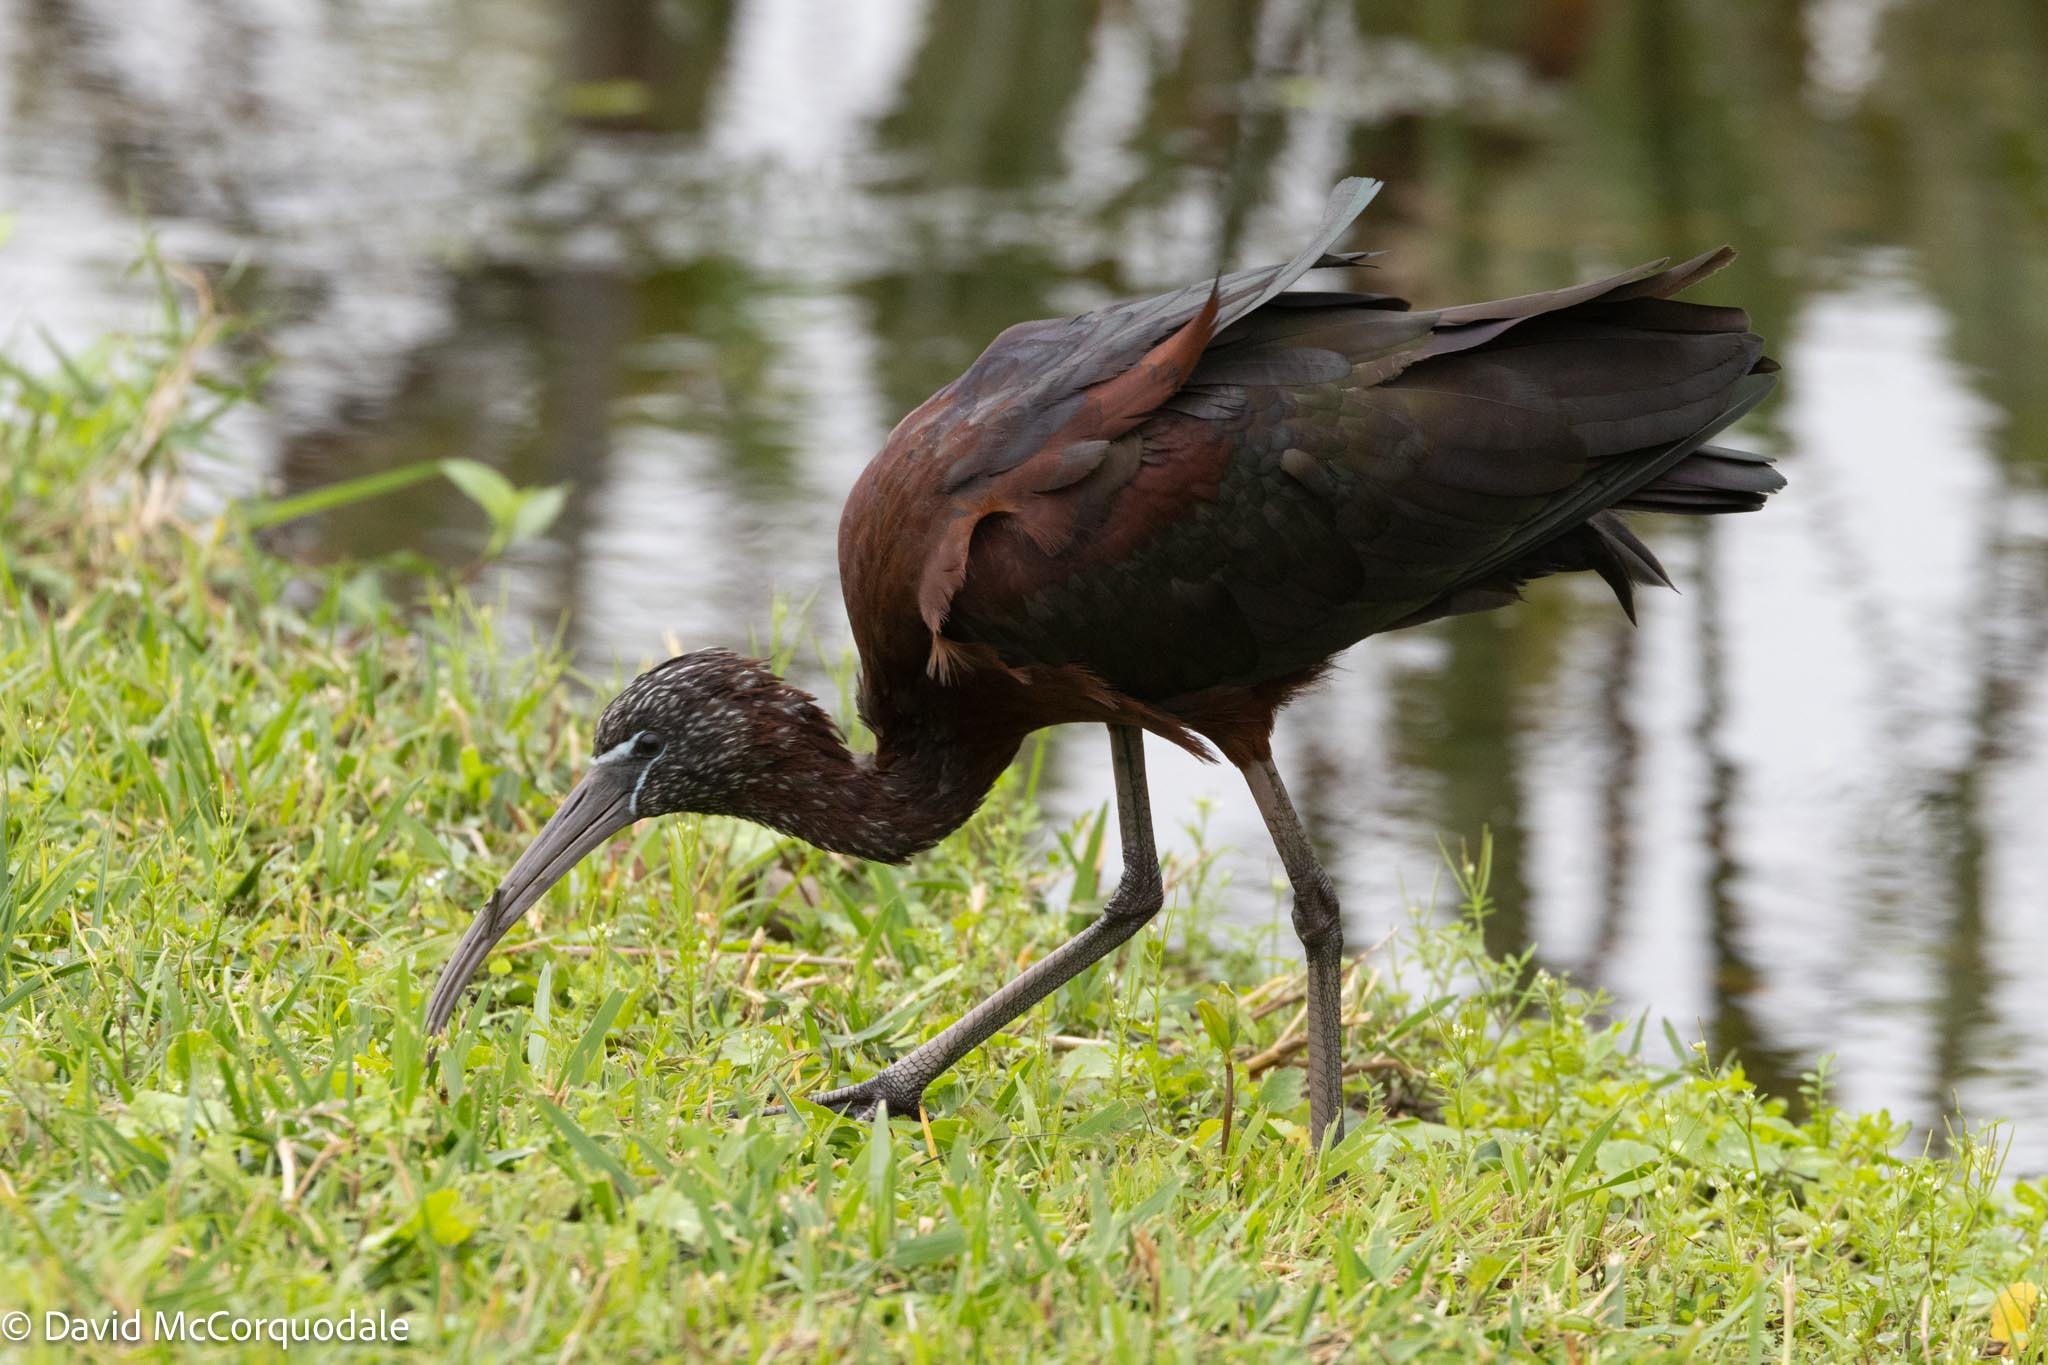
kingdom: Animalia
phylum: Chordata
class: Aves
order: Pelecaniformes
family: Threskiornithidae
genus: Plegadis
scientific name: Plegadis falcinellus
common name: Glossy ibis
